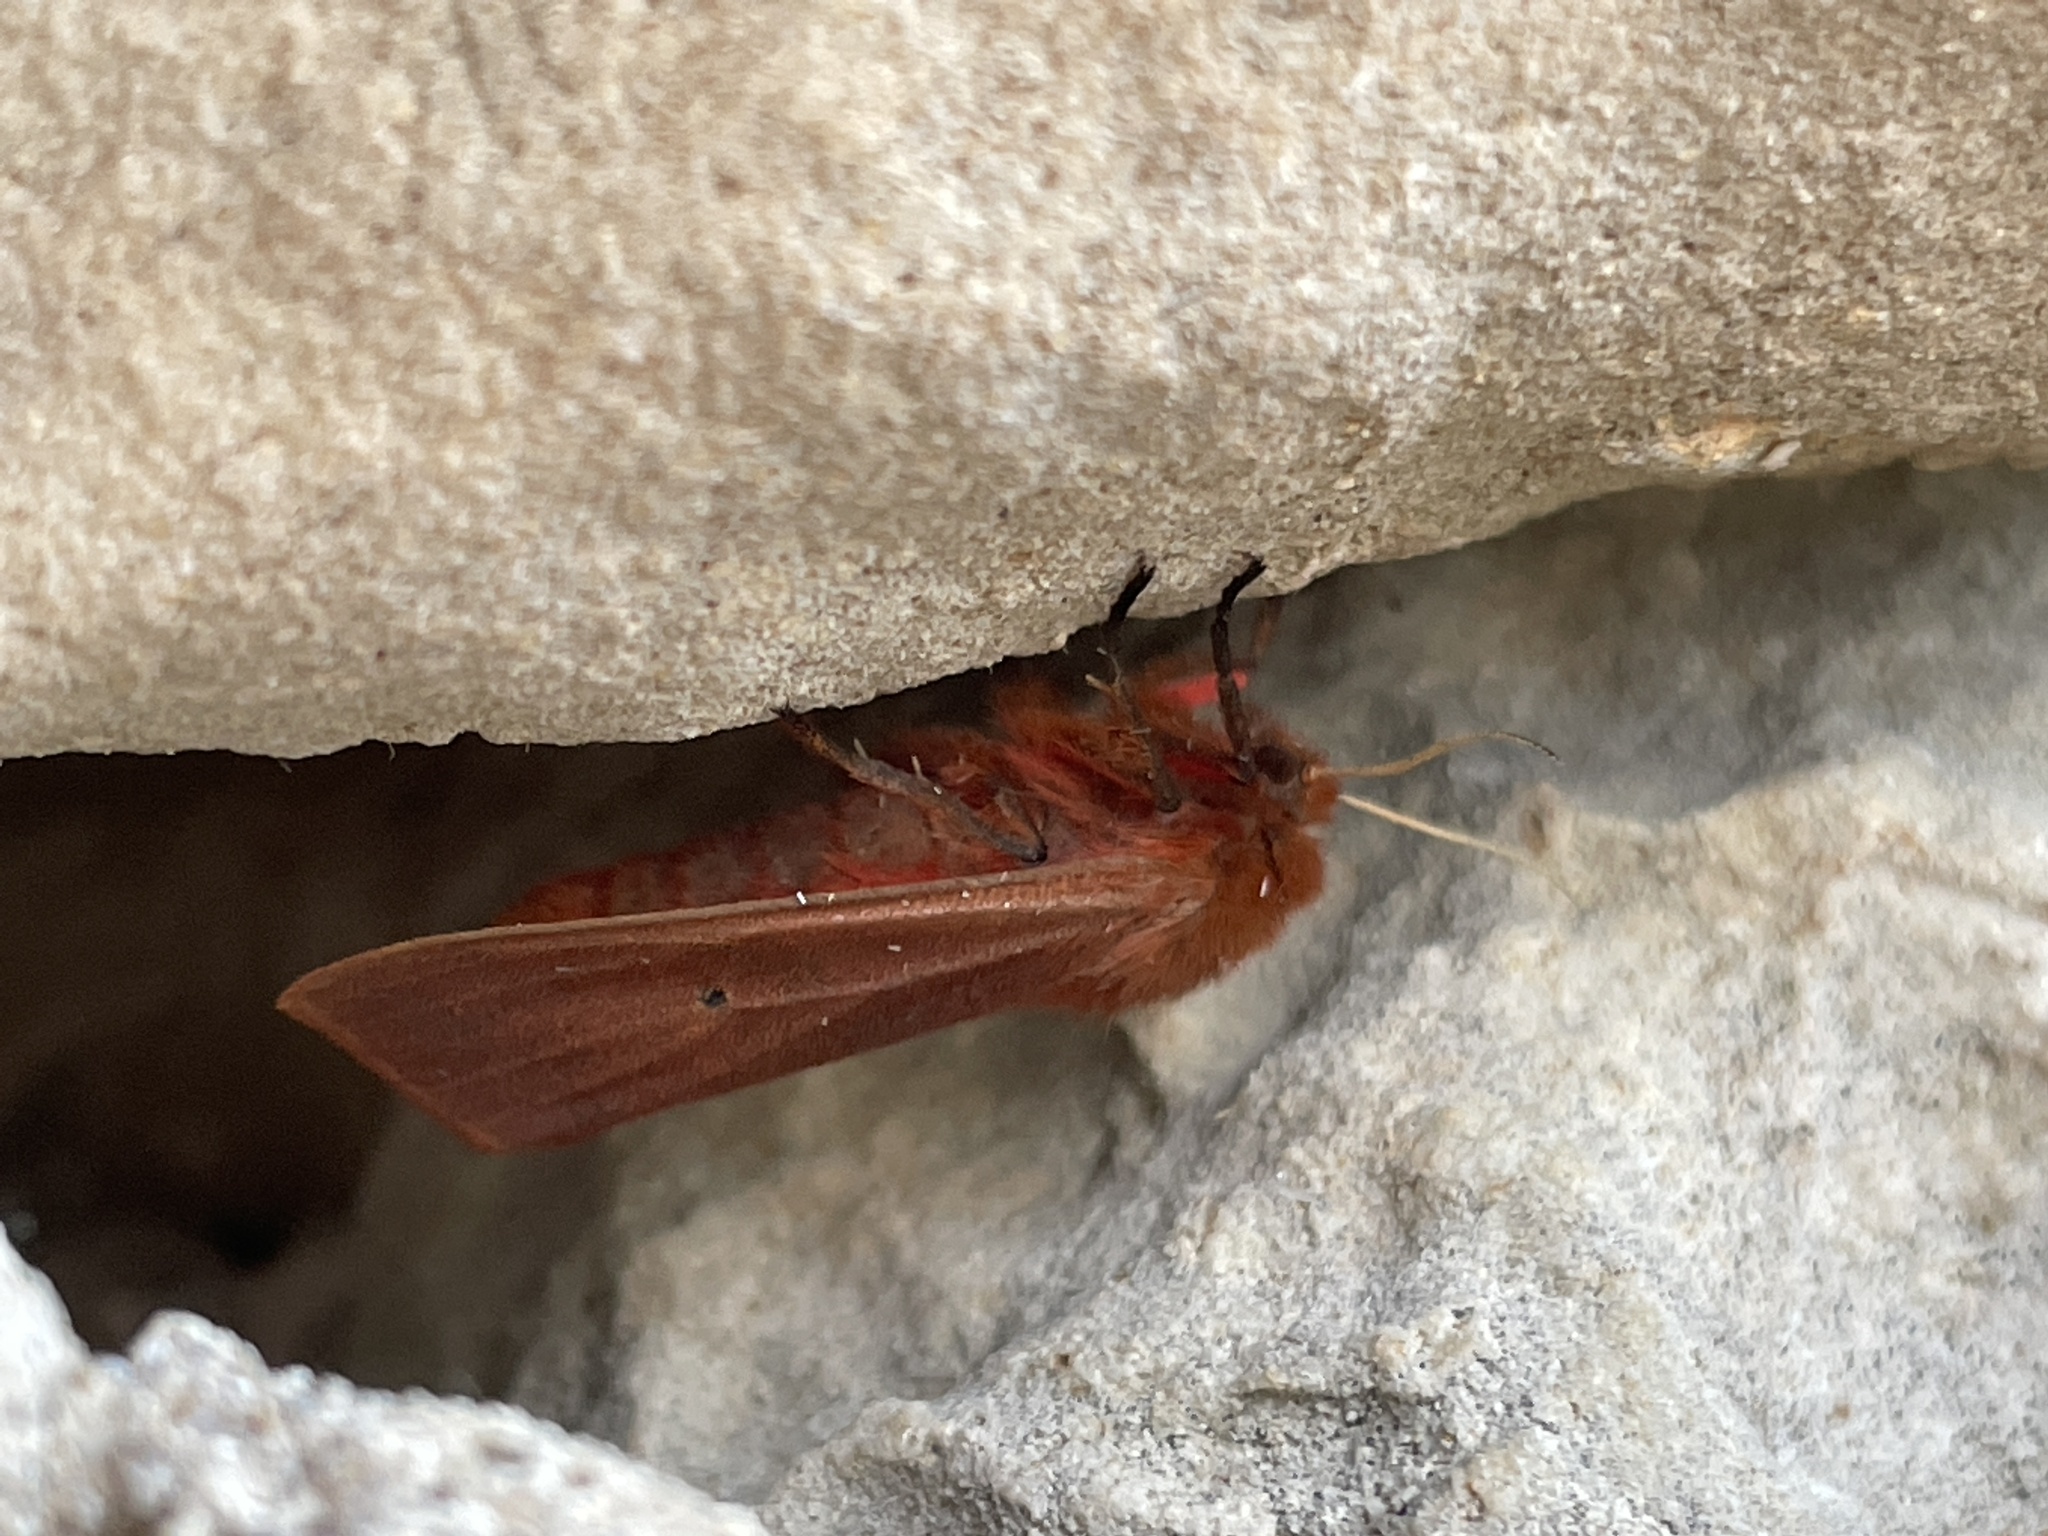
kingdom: Animalia
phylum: Arthropoda
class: Insecta
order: Lepidoptera
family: Erebidae
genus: Phragmatobia
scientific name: Phragmatobia fuliginosa
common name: Ruby tiger
